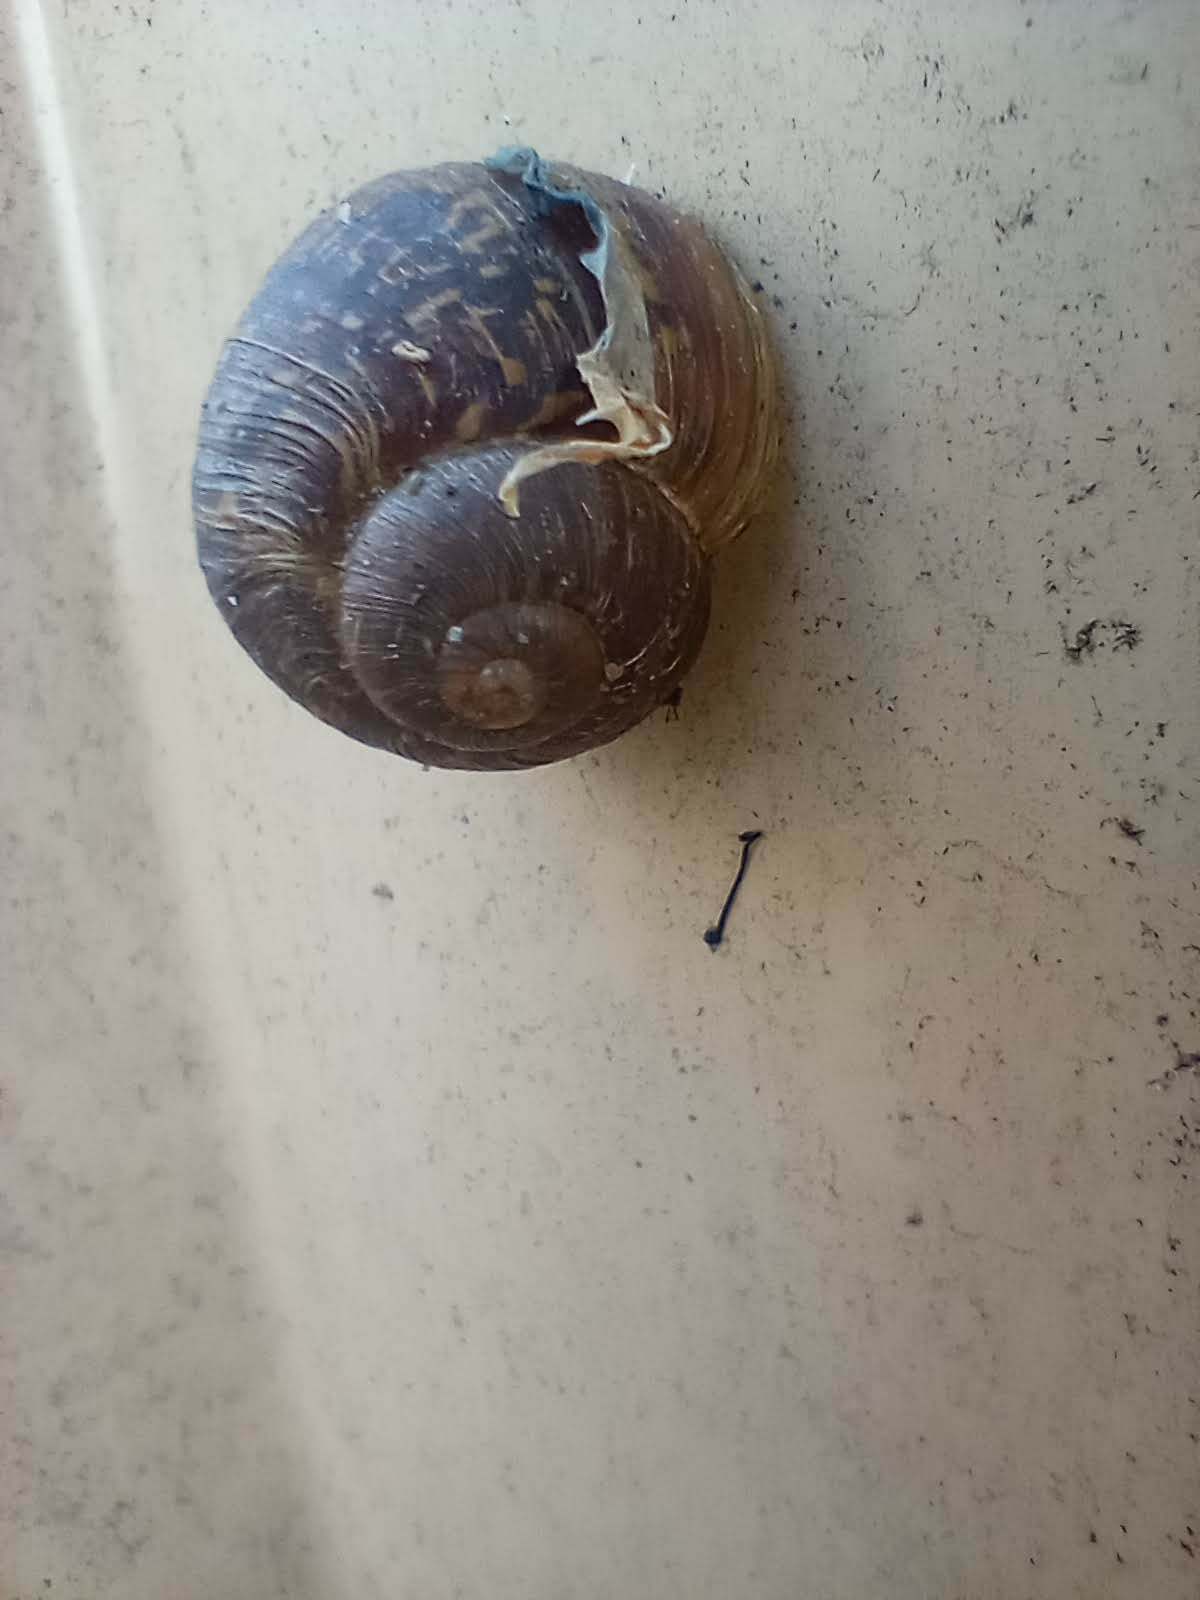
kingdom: Animalia
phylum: Mollusca
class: Gastropoda
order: Stylommatophora
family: Helicidae
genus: Cornu
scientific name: Cornu aspersum
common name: Brown garden snail
